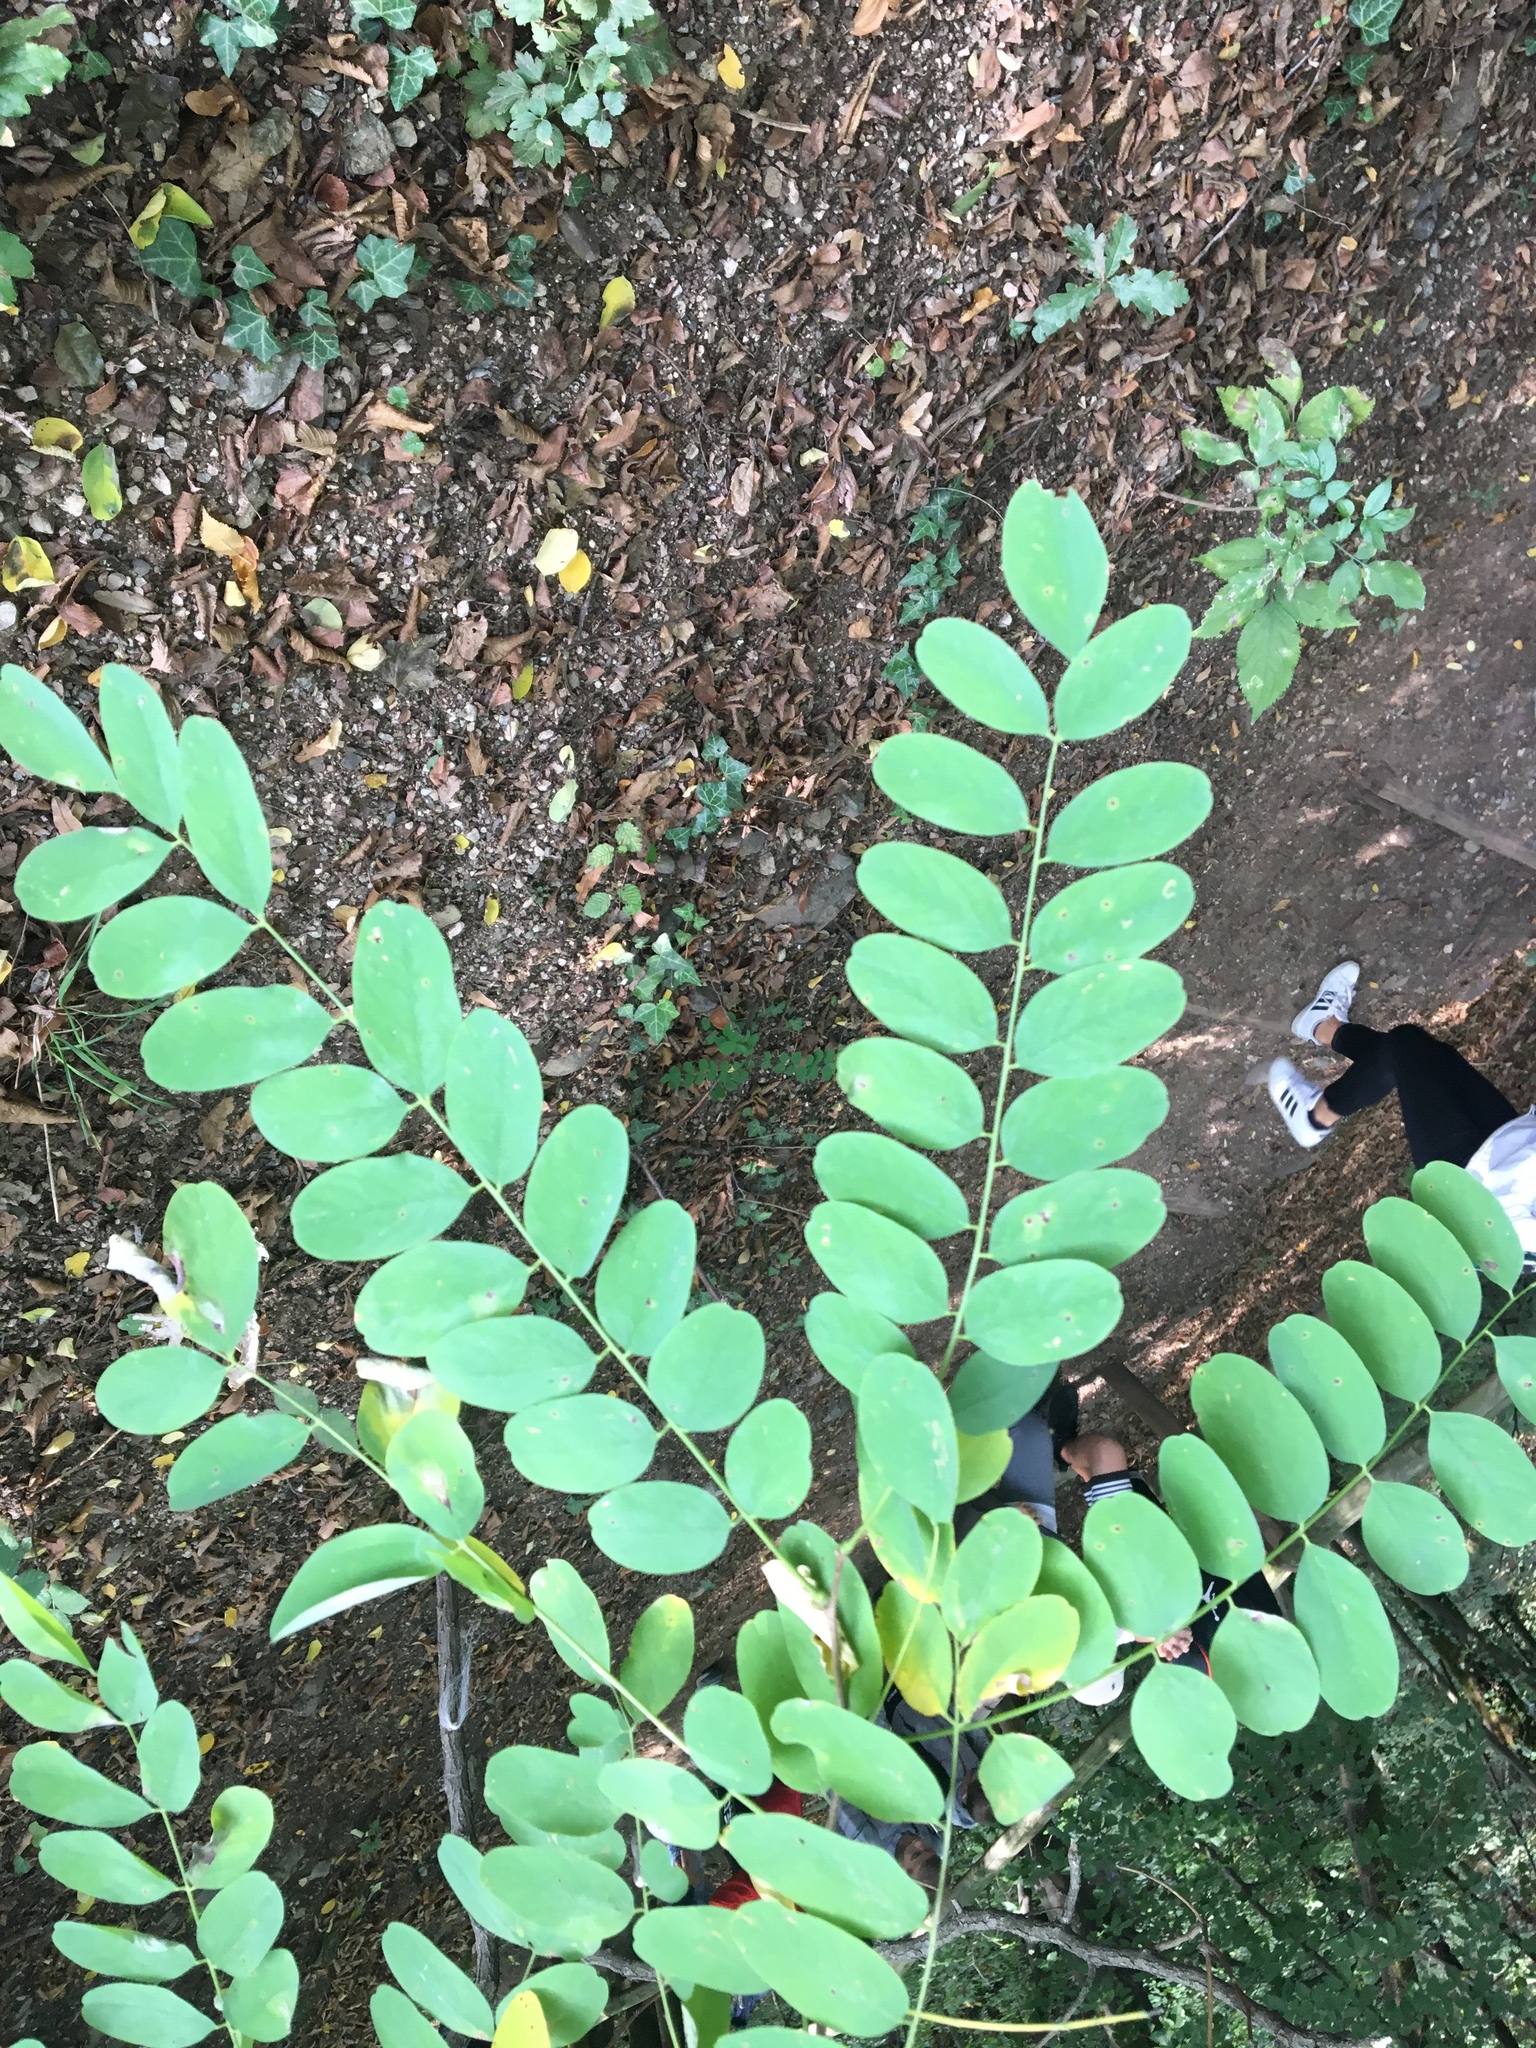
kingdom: Plantae
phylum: Tracheophyta
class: Magnoliopsida
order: Fabales
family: Fabaceae
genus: Robinia
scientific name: Robinia pseudoacacia
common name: Black locust
